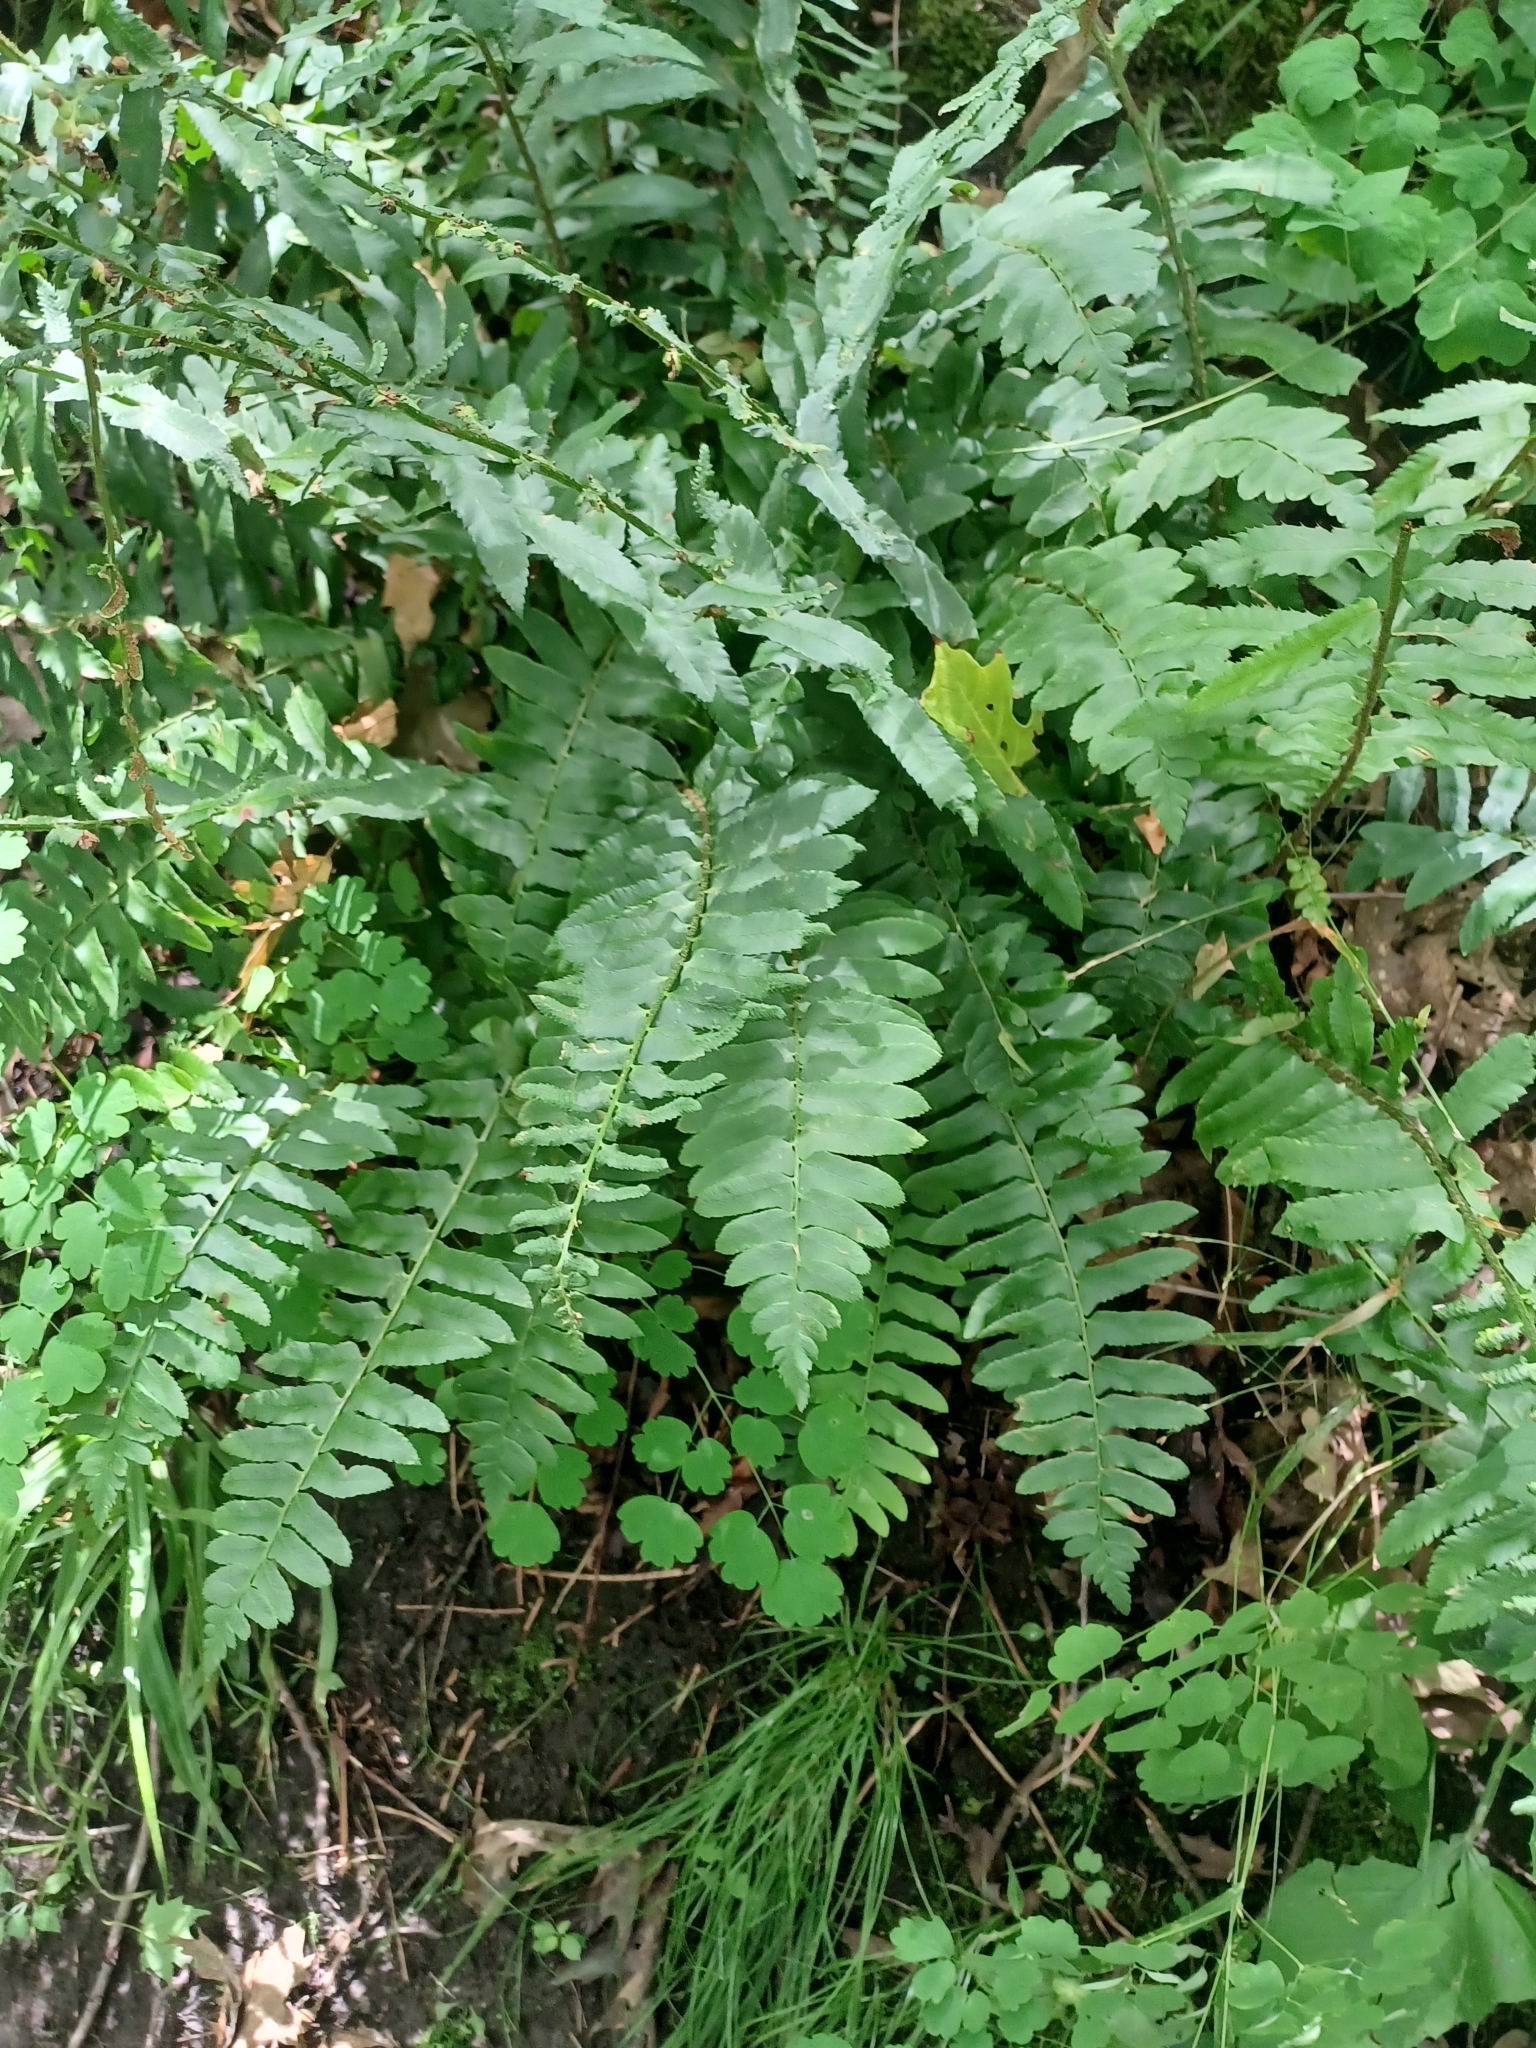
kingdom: Plantae
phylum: Tracheophyta
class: Polypodiopsida
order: Polypodiales
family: Dryopteridaceae
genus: Polystichum
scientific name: Polystichum acrostichoides
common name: Christmas fern
